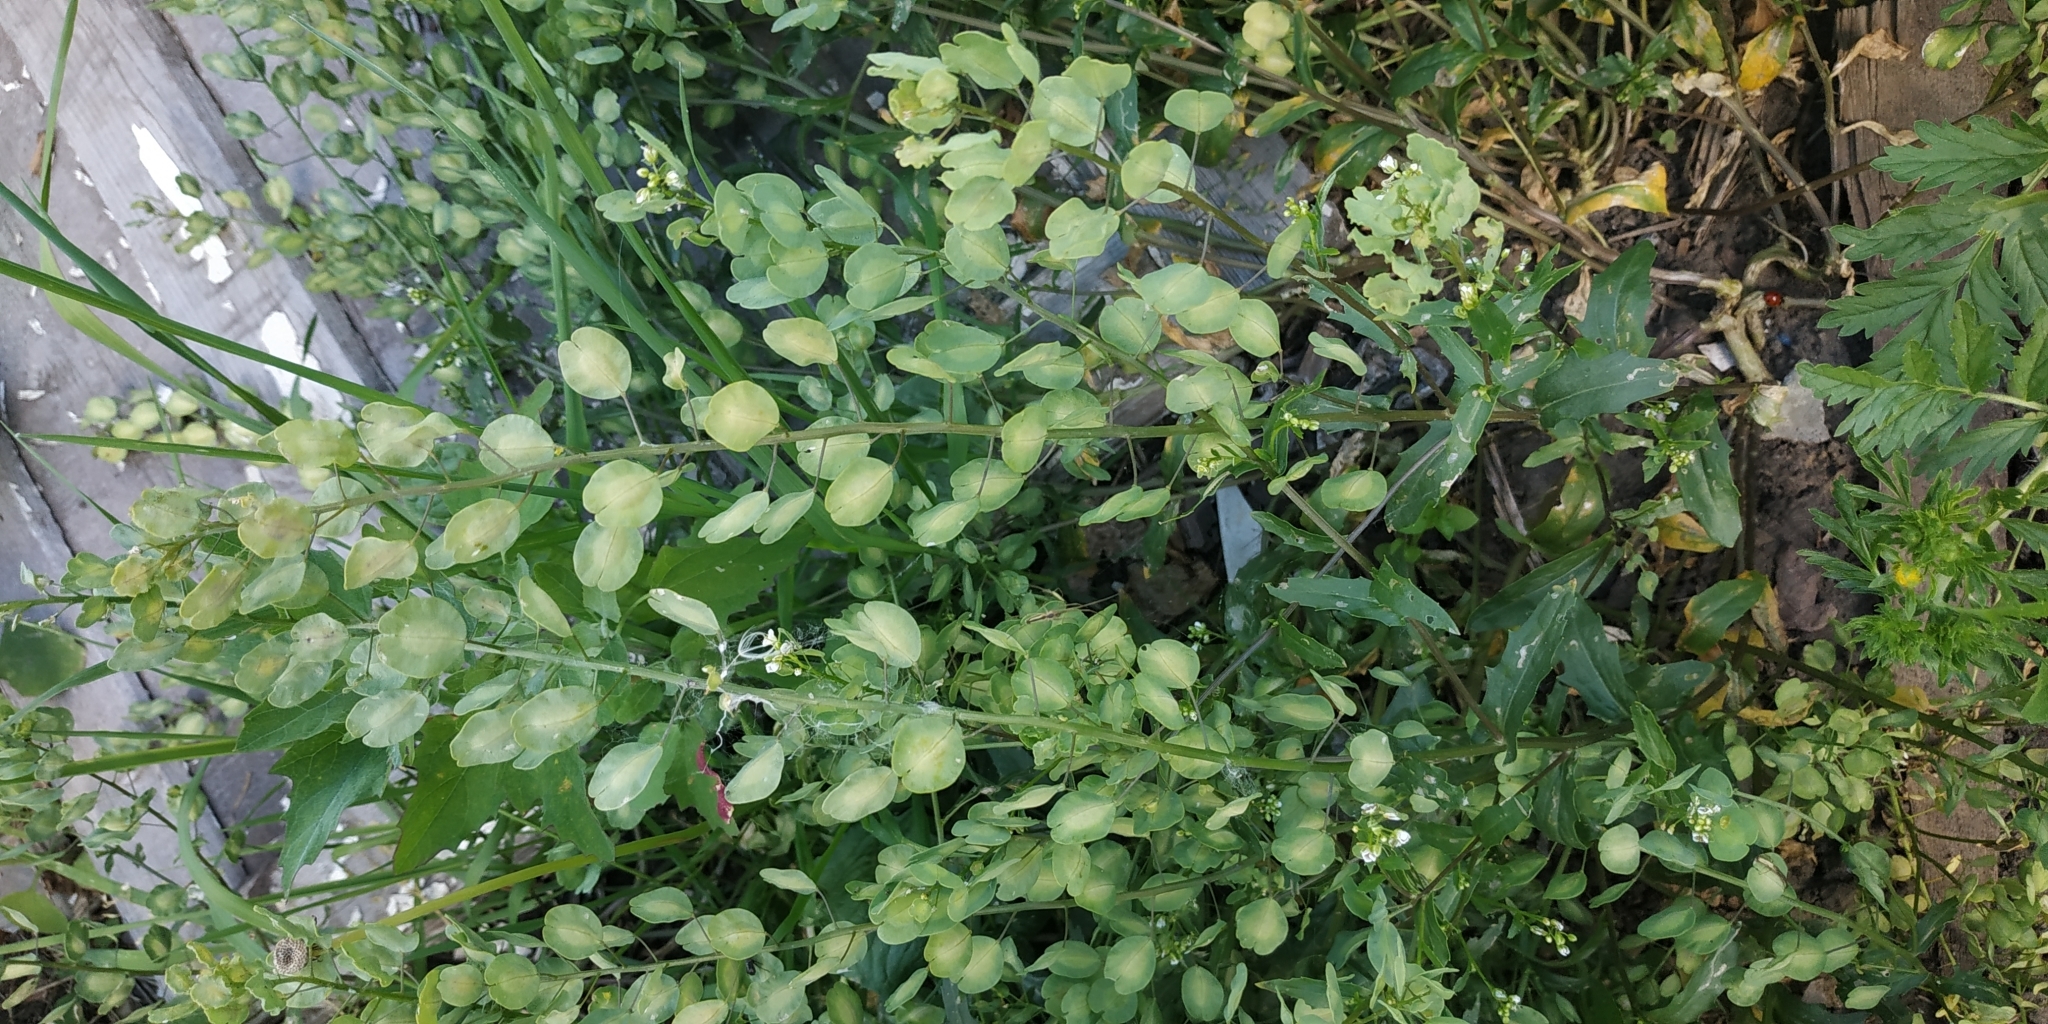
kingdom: Plantae
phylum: Tracheophyta
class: Magnoliopsida
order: Brassicales
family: Brassicaceae
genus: Thlaspi
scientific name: Thlaspi arvense
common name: Field pennycress
